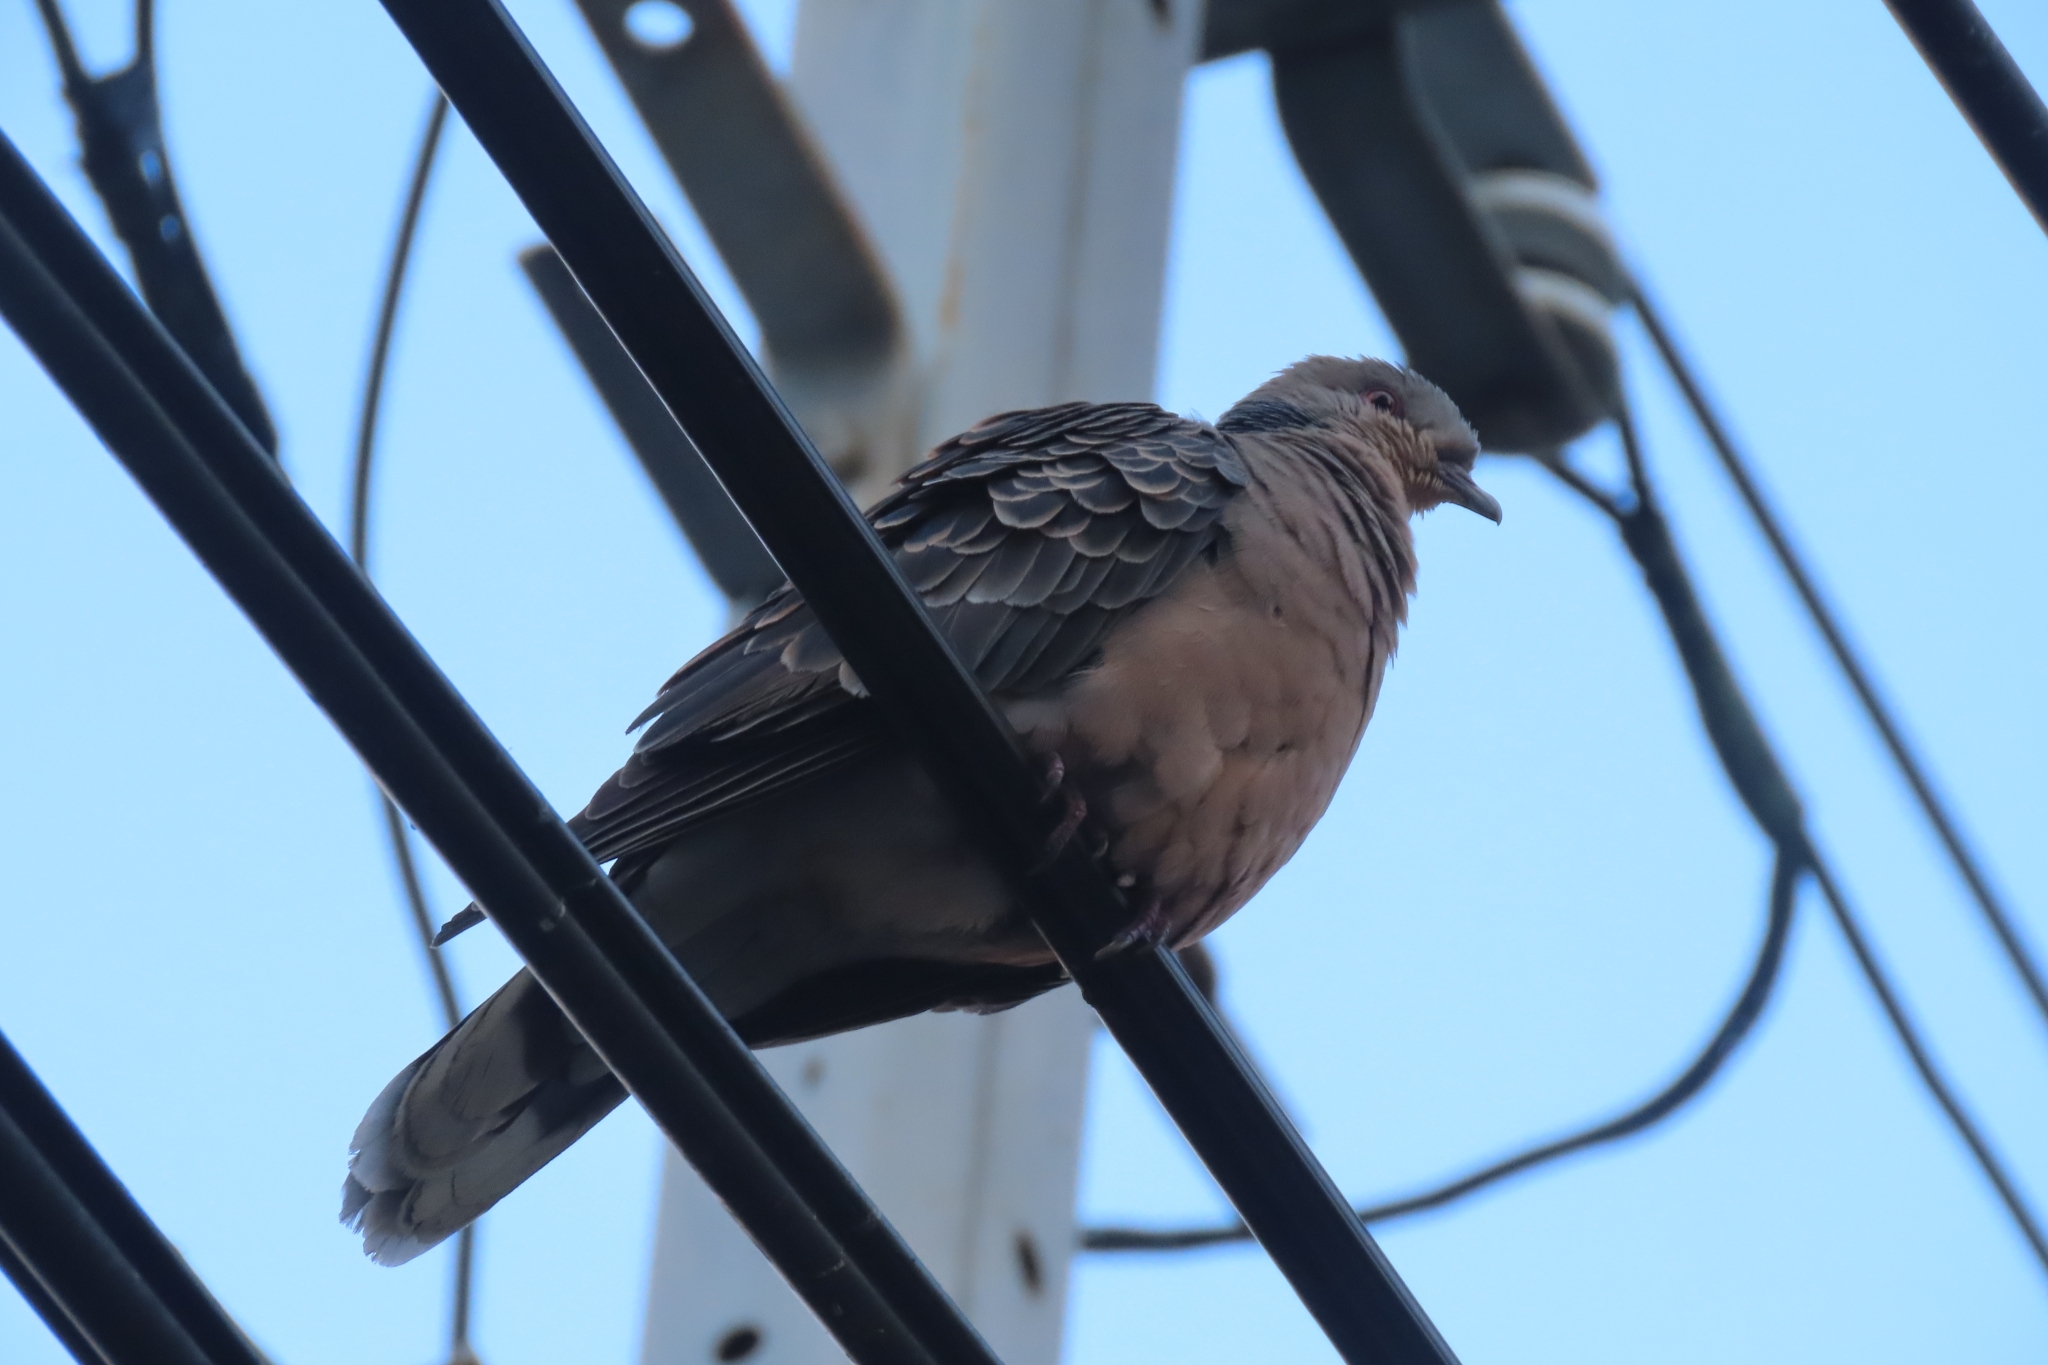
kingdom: Animalia
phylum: Chordata
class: Aves
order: Columbiformes
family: Columbidae
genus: Streptopelia
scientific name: Streptopelia orientalis
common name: Oriental turtle dove
